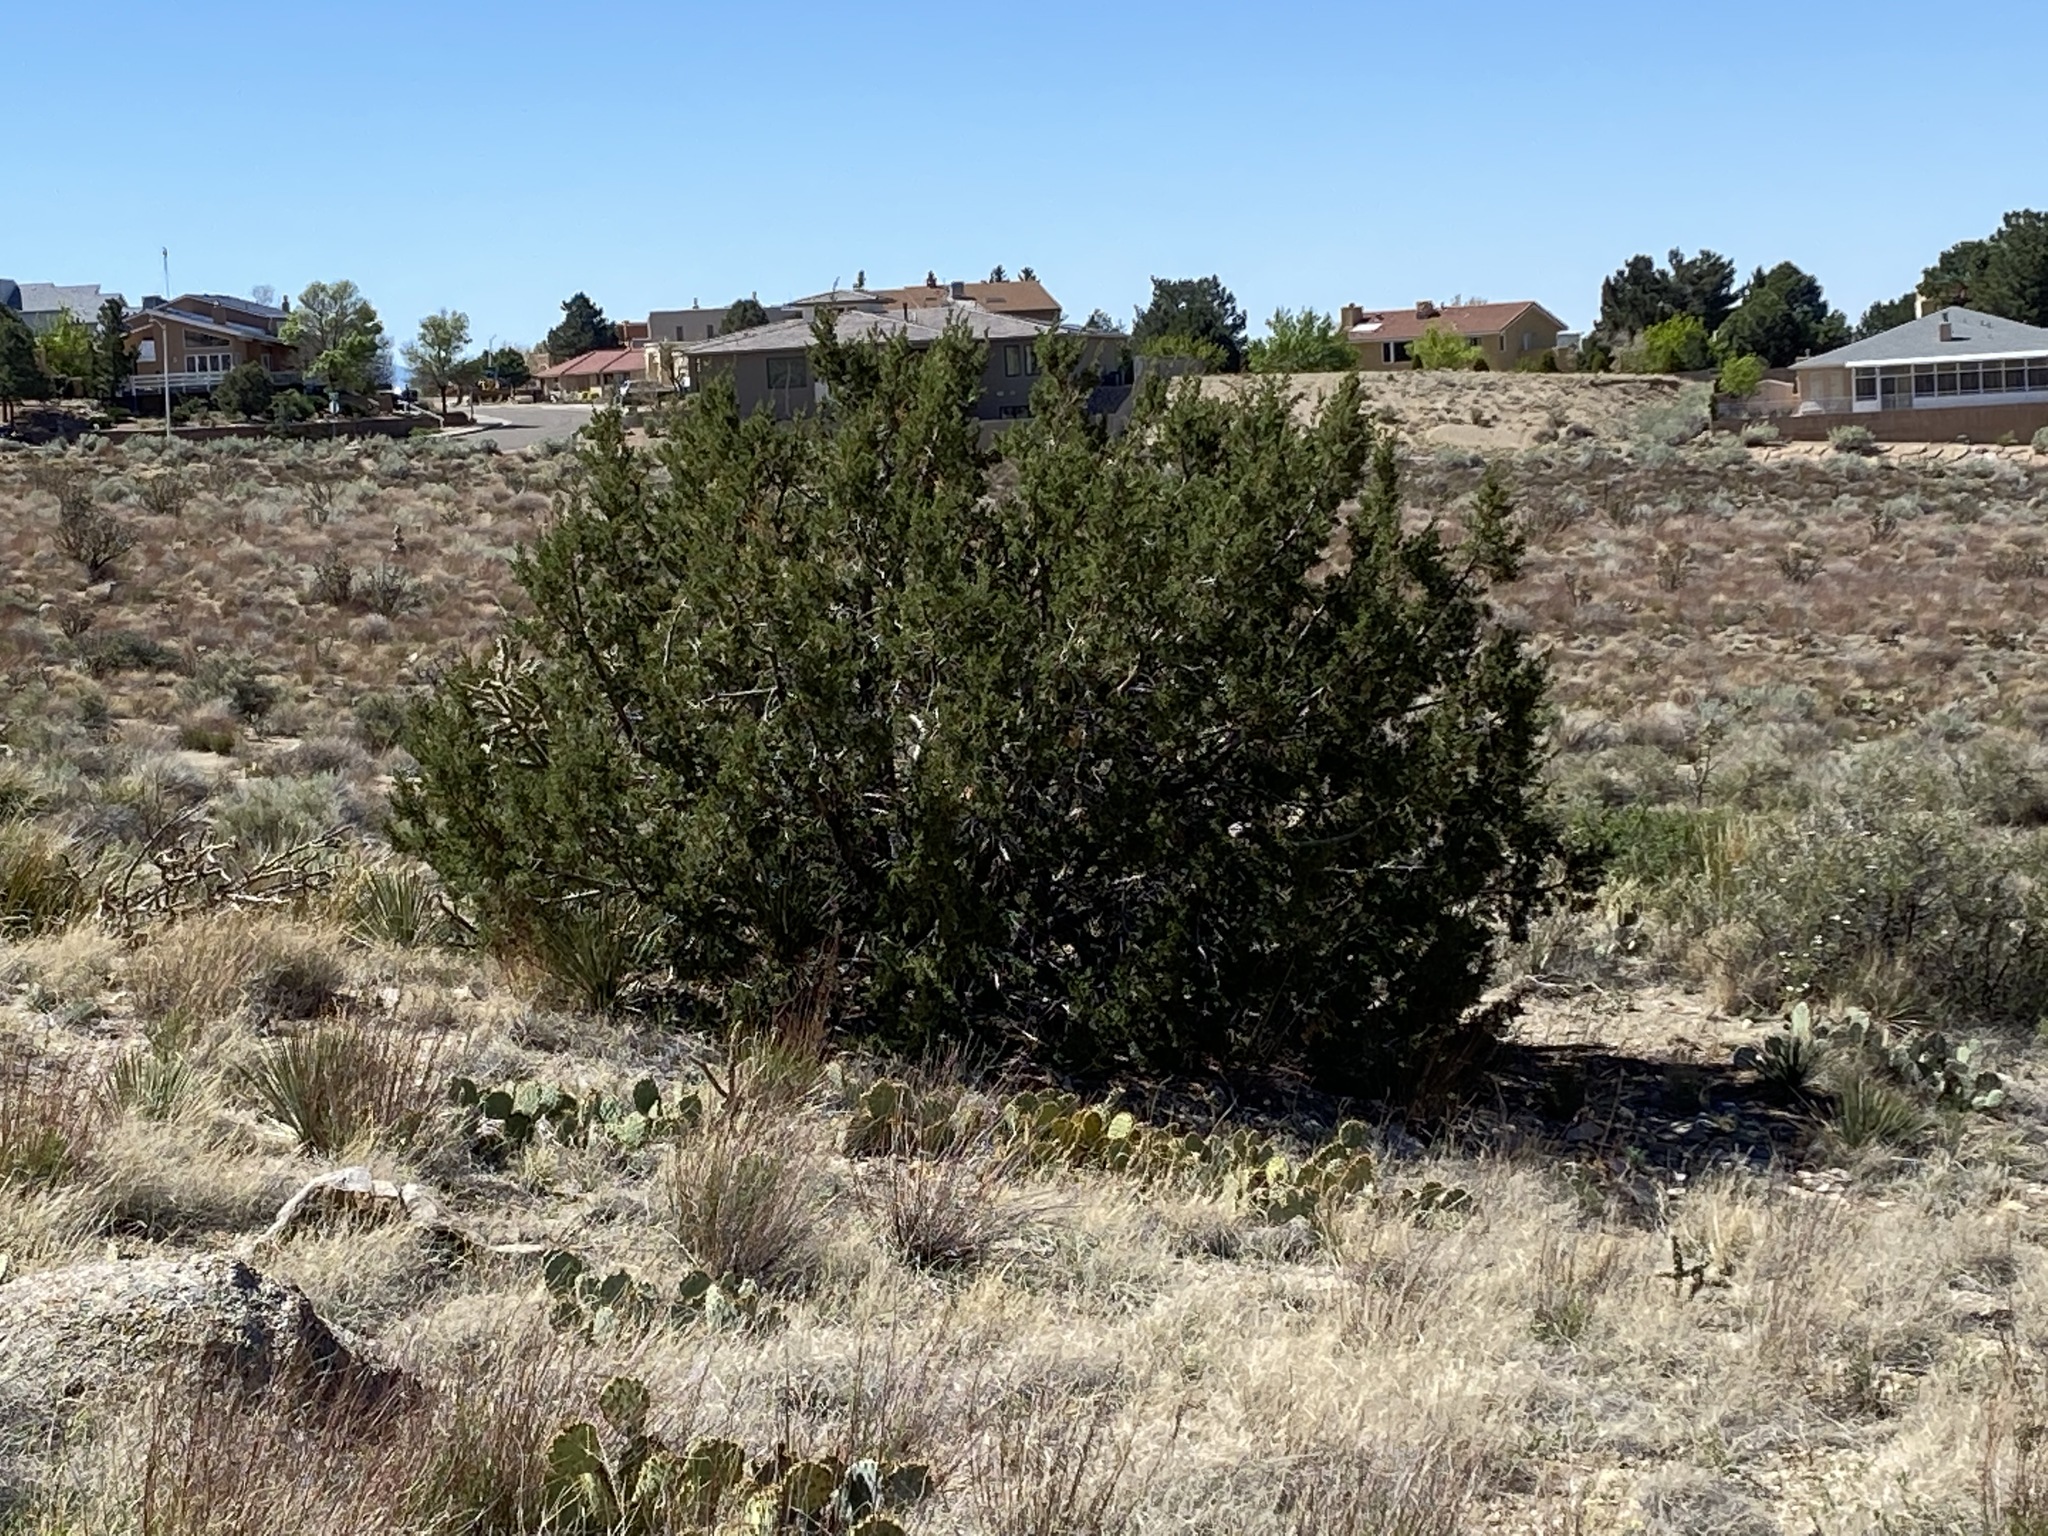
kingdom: Plantae
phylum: Tracheophyta
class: Pinopsida
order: Pinales
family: Cupressaceae
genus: Juniperus
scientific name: Juniperus monosperma
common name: One-seed juniper
